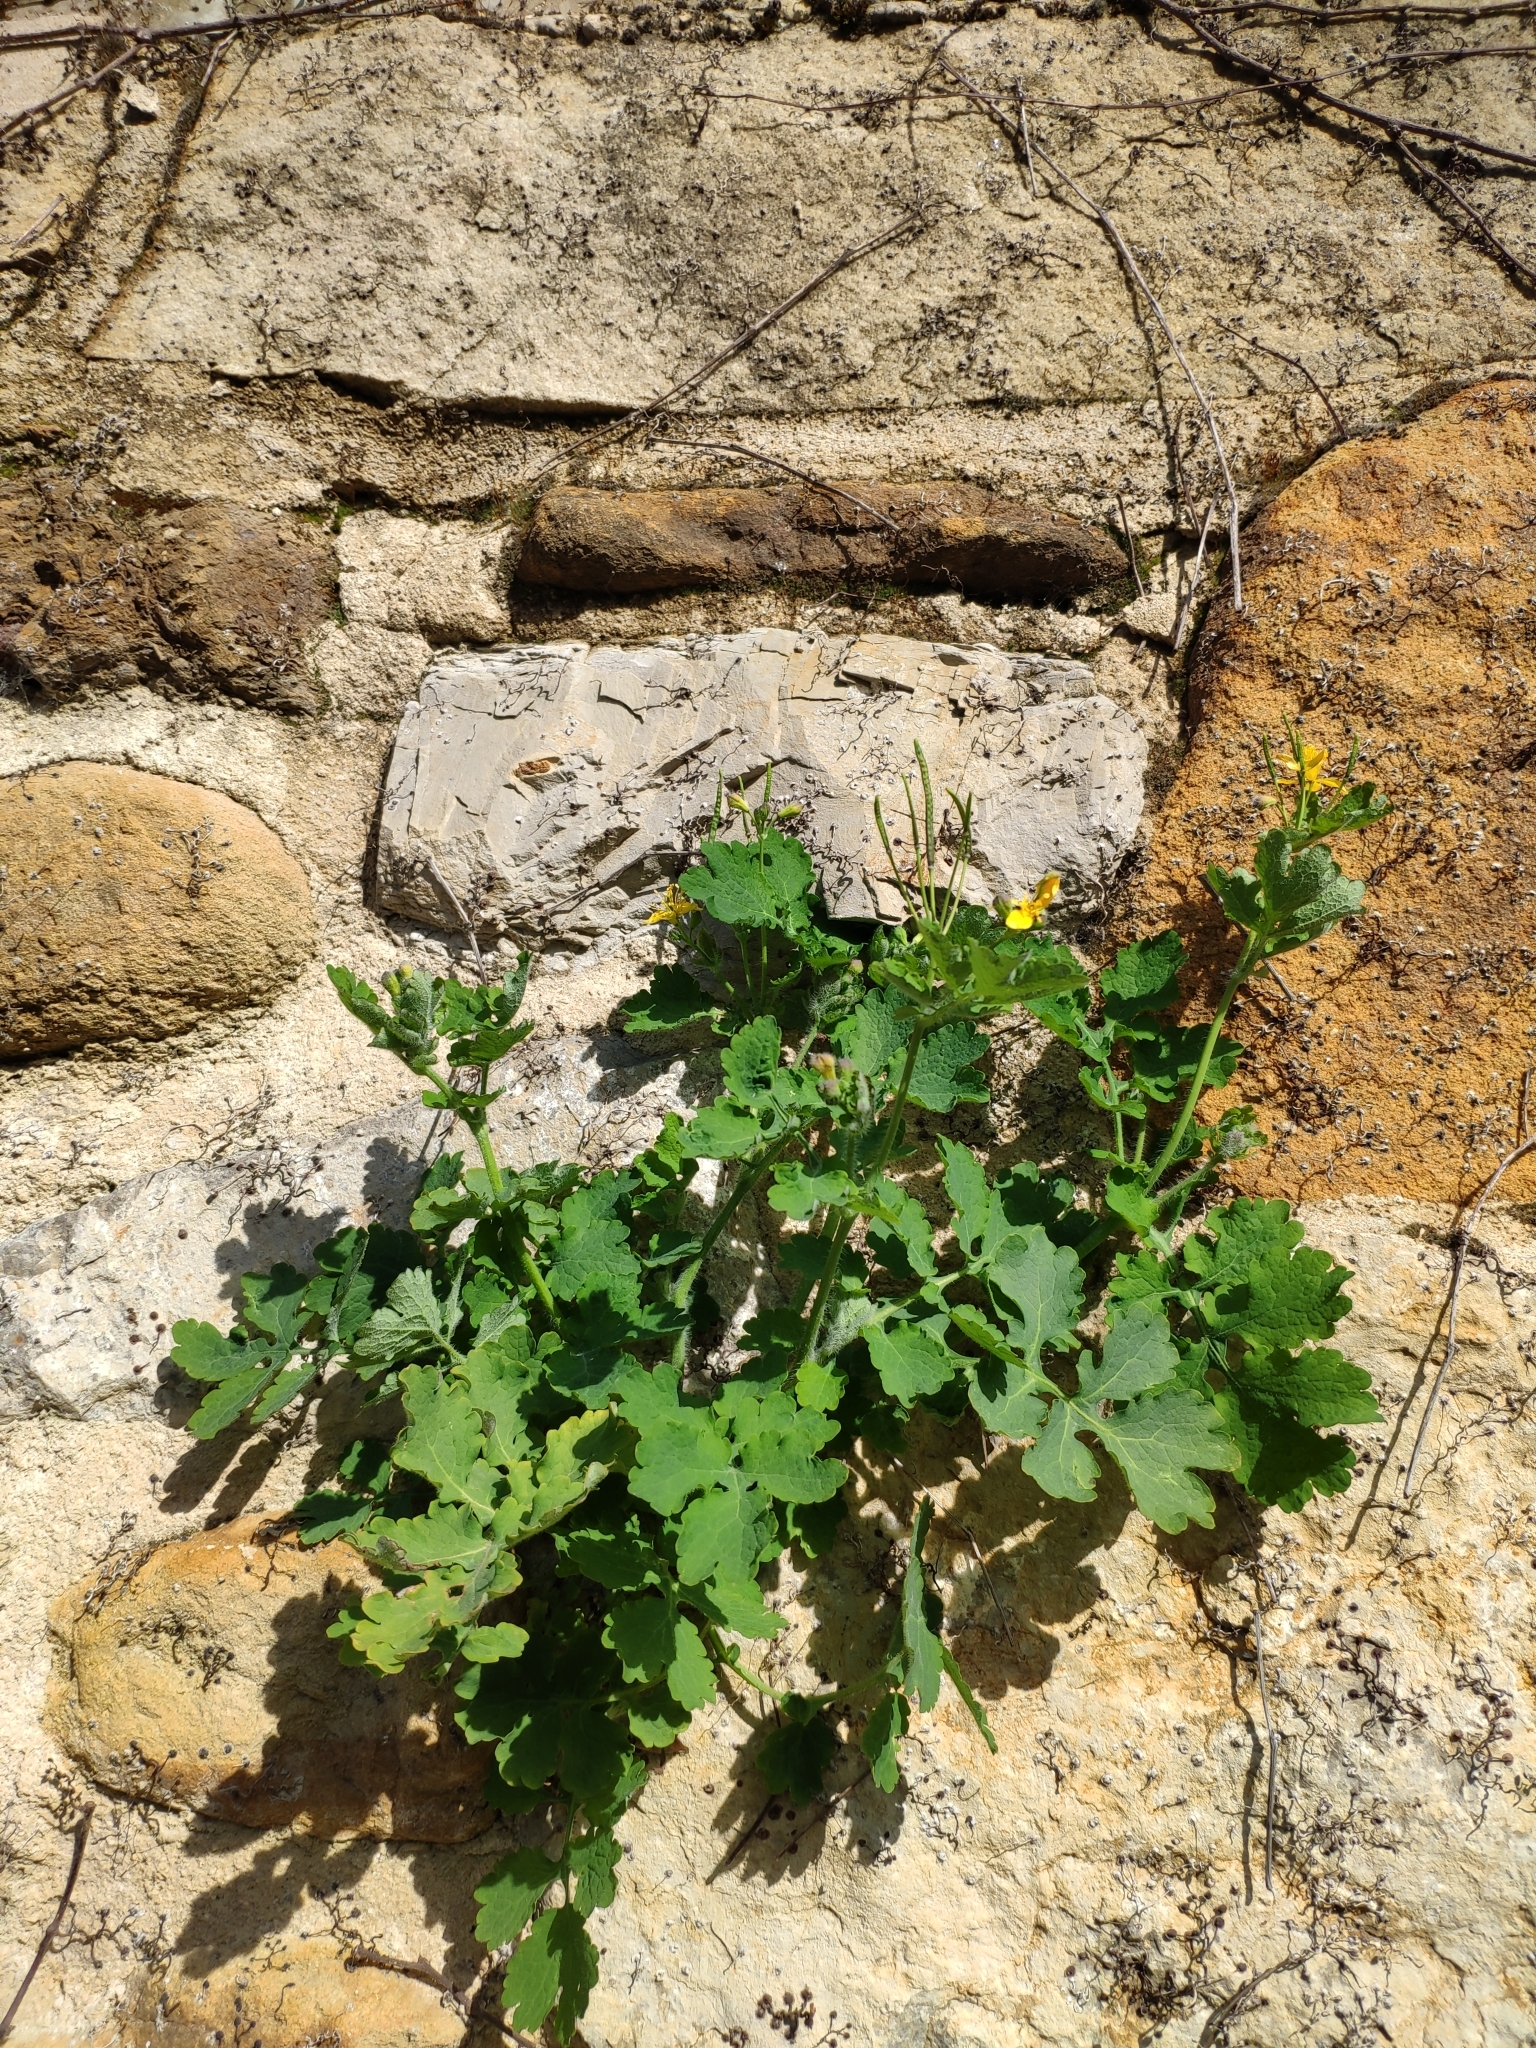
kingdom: Plantae
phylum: Tracheophyta
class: Magnoliopsida
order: Ranunculales
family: Papaveraceae
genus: Chelidonium
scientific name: Chelidonium majus
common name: Greater celandine
